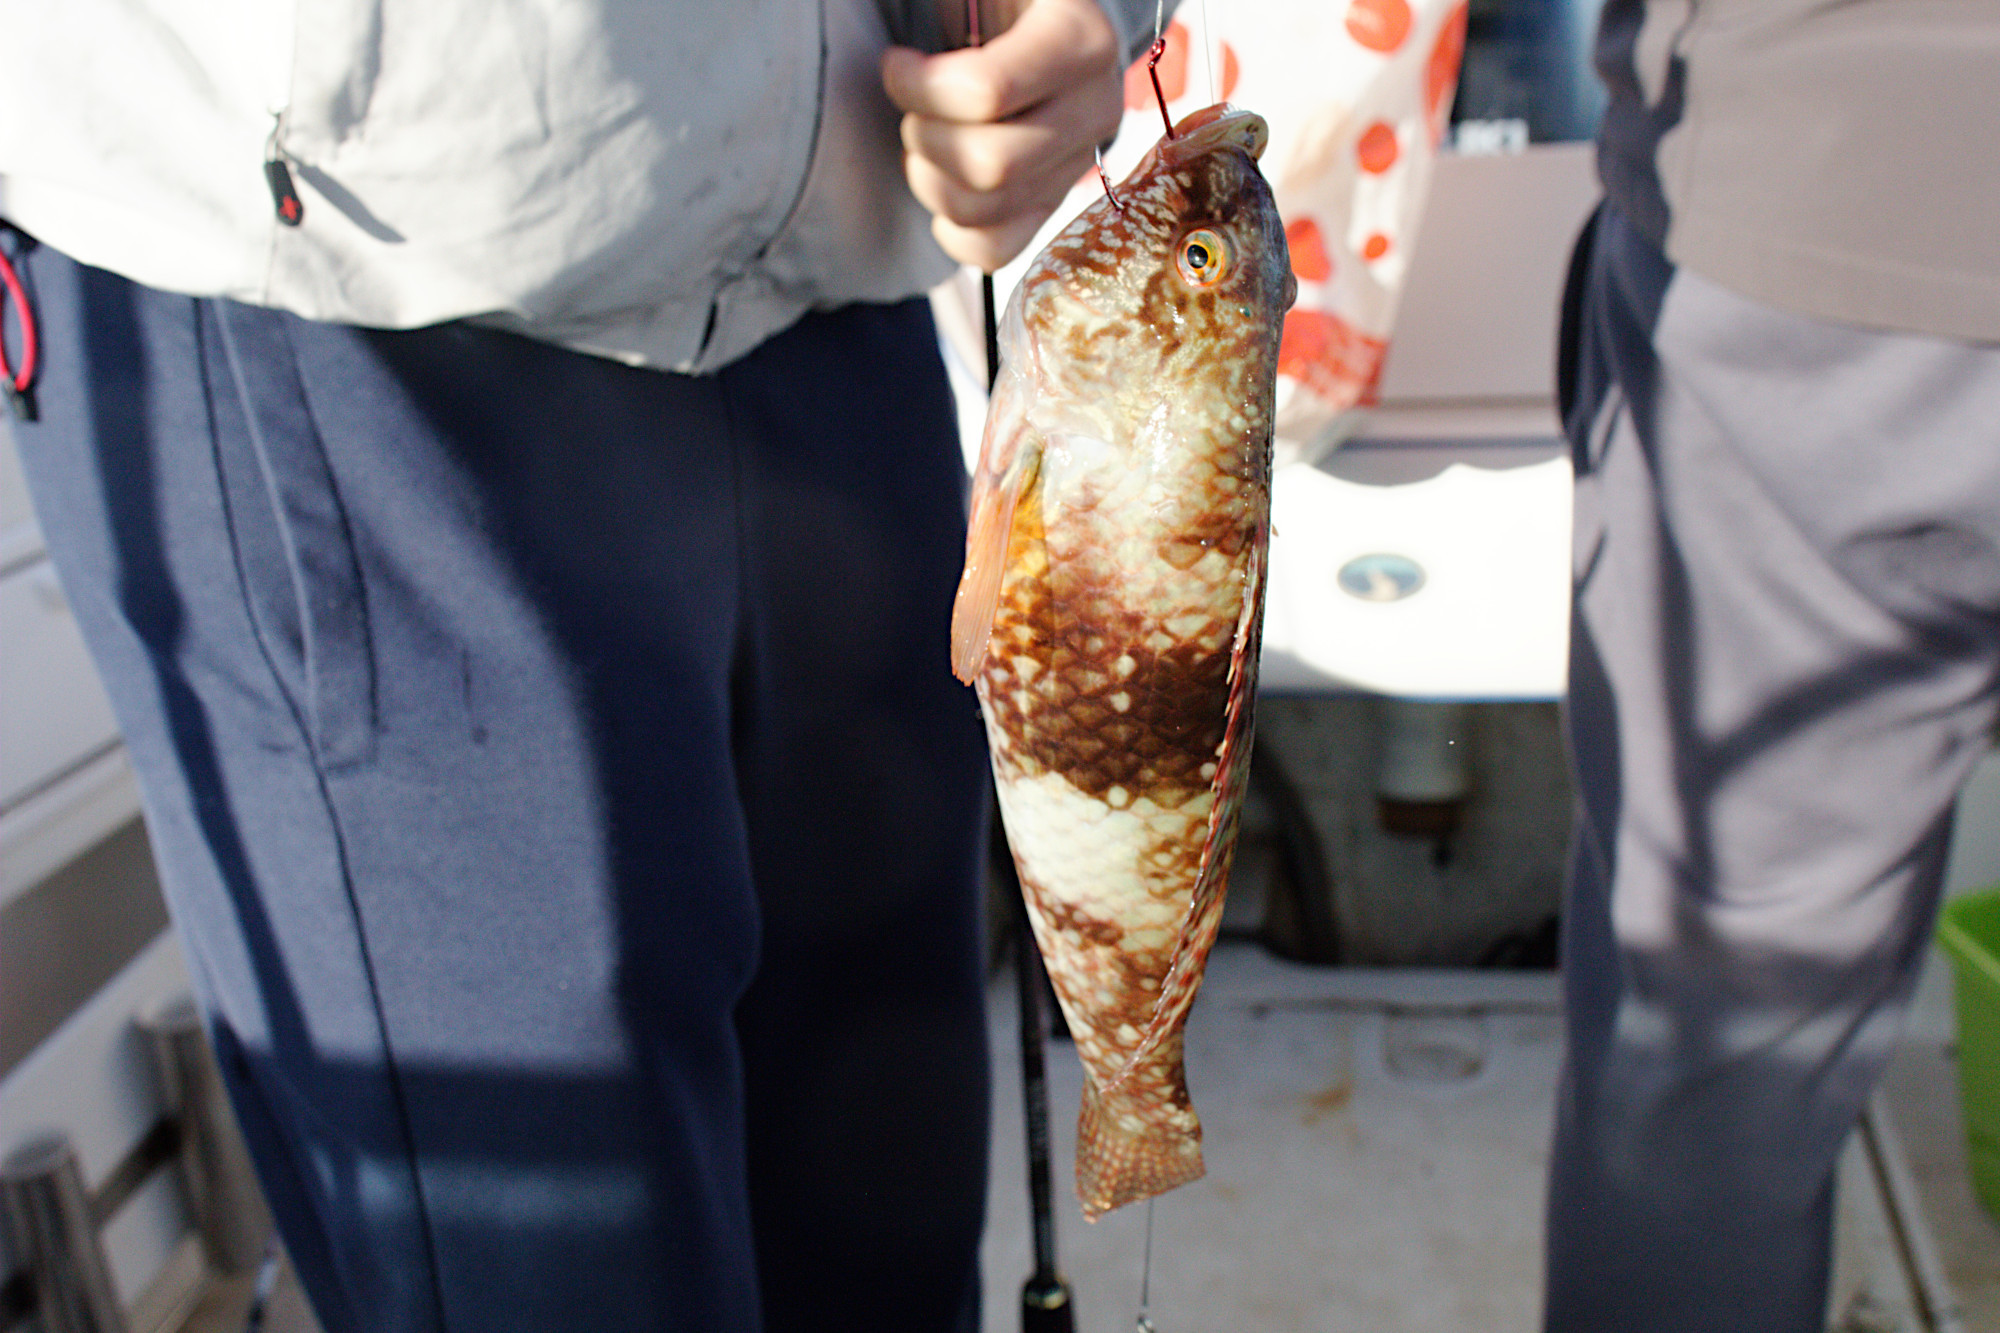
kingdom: Animalia
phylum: Chordata
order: Perciformes
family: Labridae
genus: Notolabrus
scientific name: Notolabrus tetricus
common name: Blue-throated parrotfish
